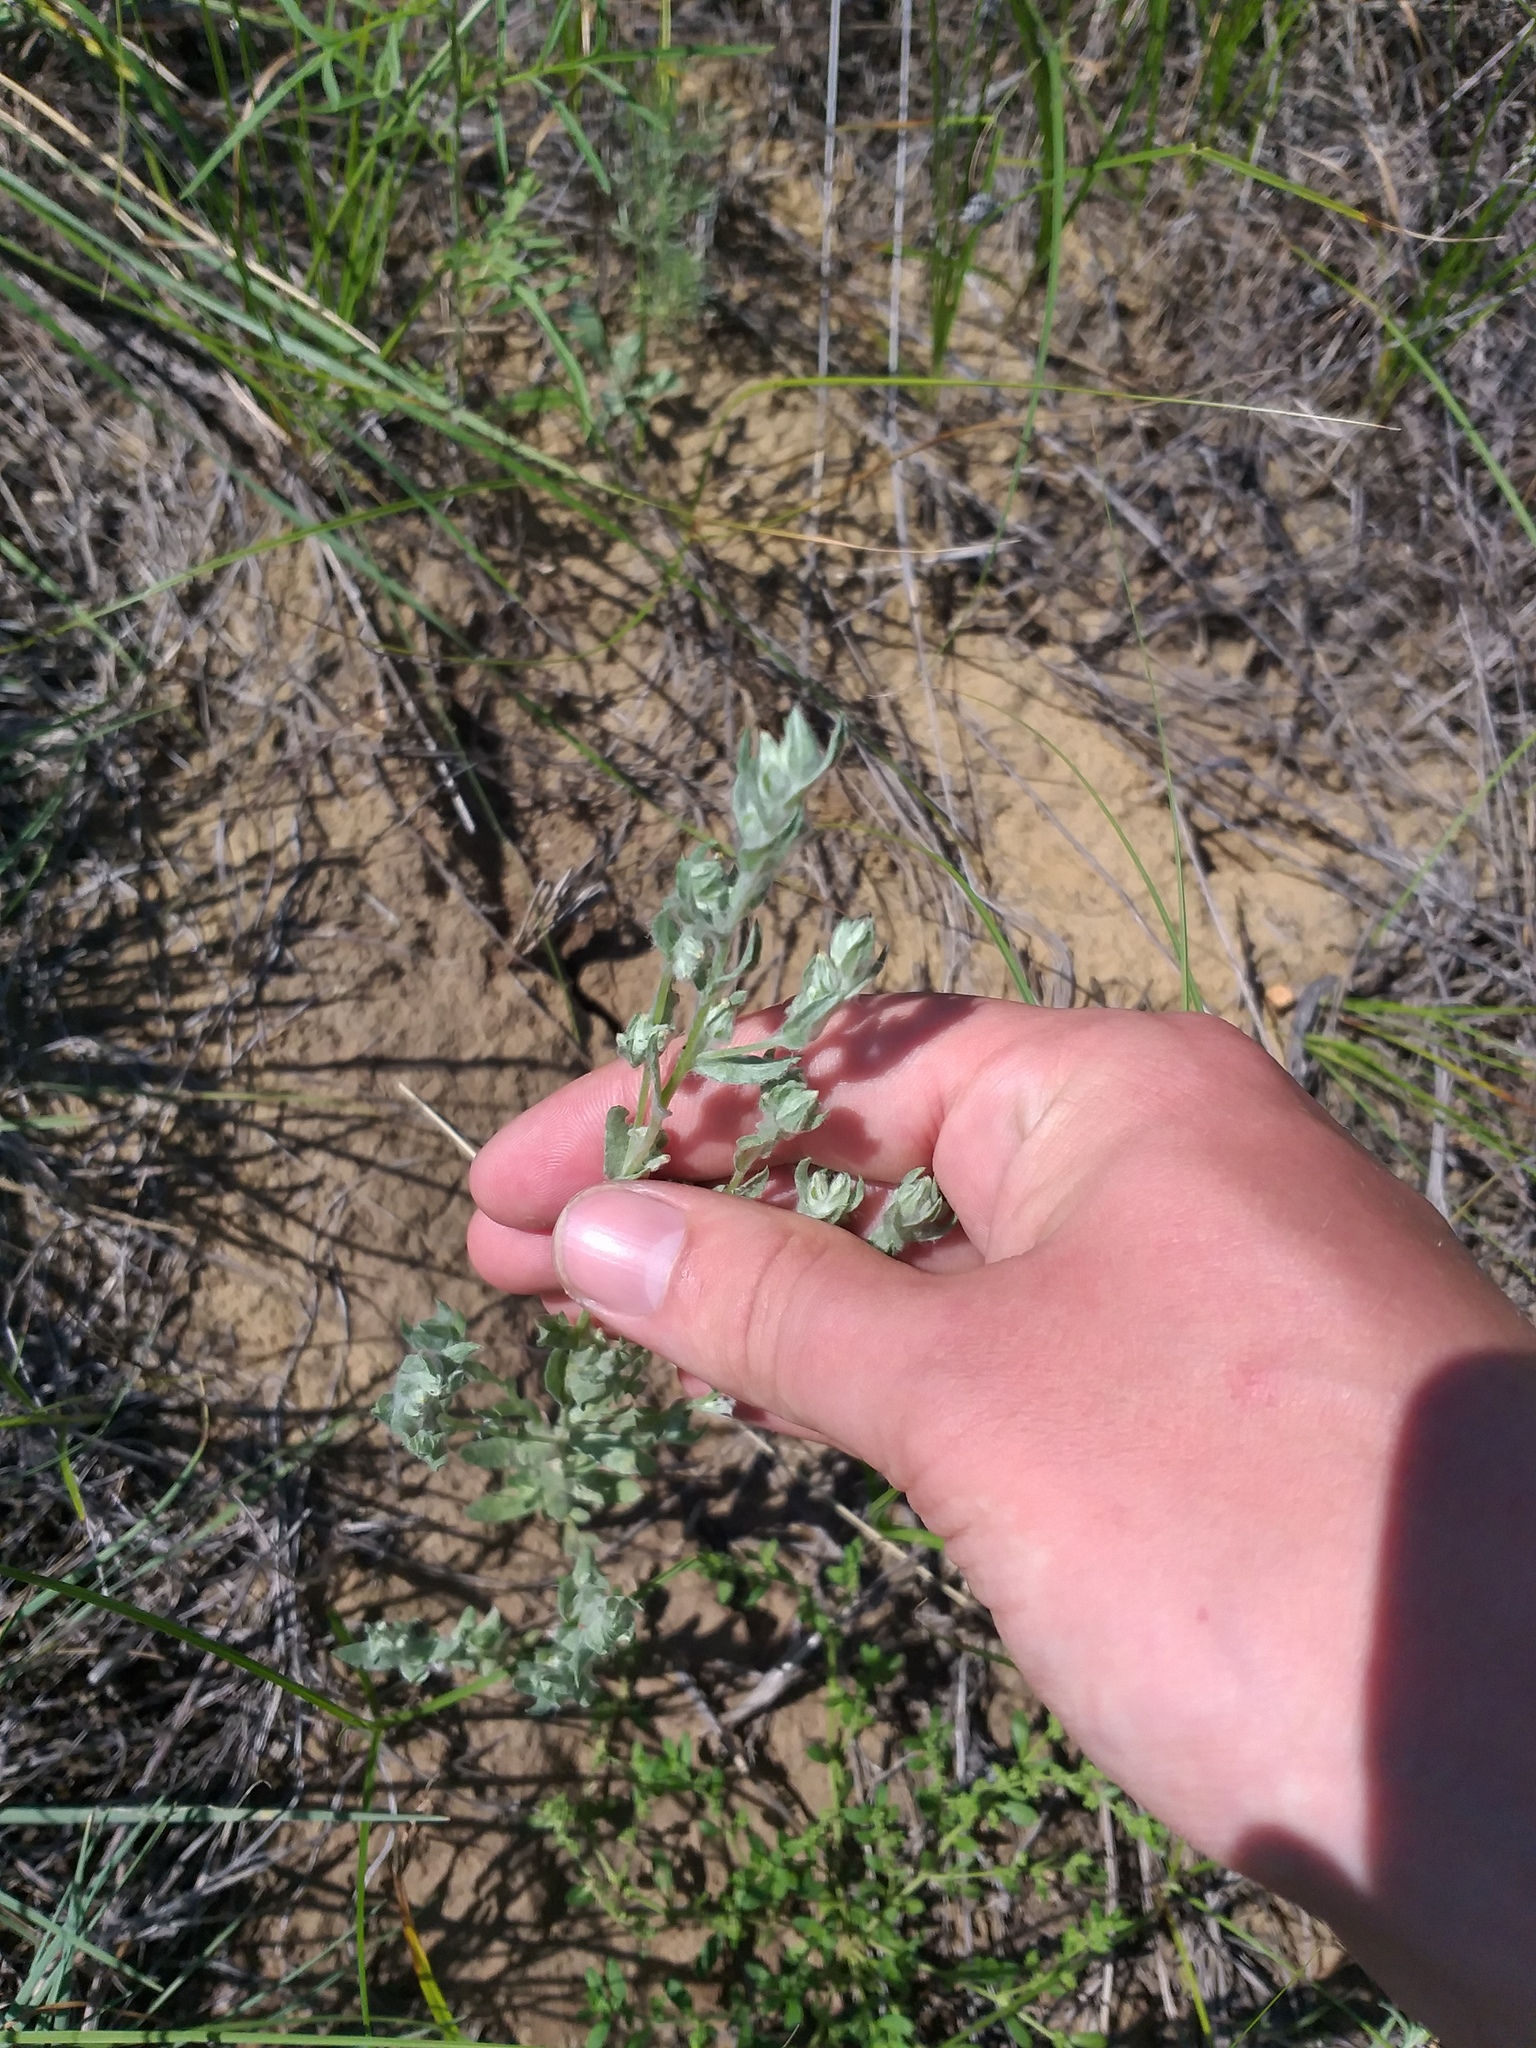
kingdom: Plantae
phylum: Tracheophyta
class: Magnoliopsida
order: Asterales
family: Asteraceae
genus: Filago
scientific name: Filago arvensis
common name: Field cudweed
